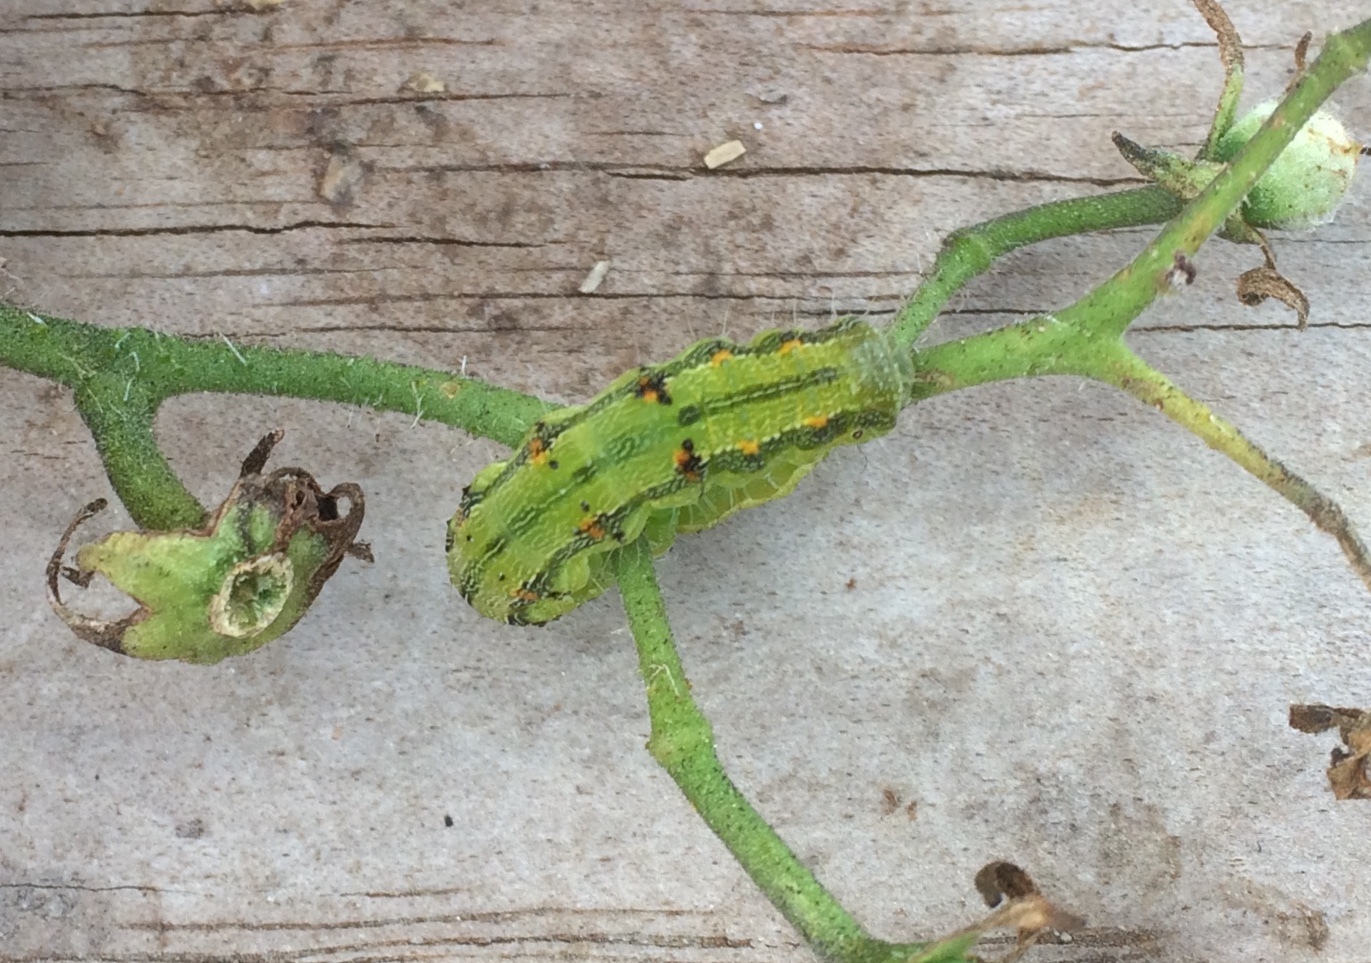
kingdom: Animalia
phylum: Arthropoda
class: Insecta
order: Lepidoptera
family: Noctuidae
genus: Helicoverpa
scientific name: Helicoverpa armigera
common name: Cotton bollworm
